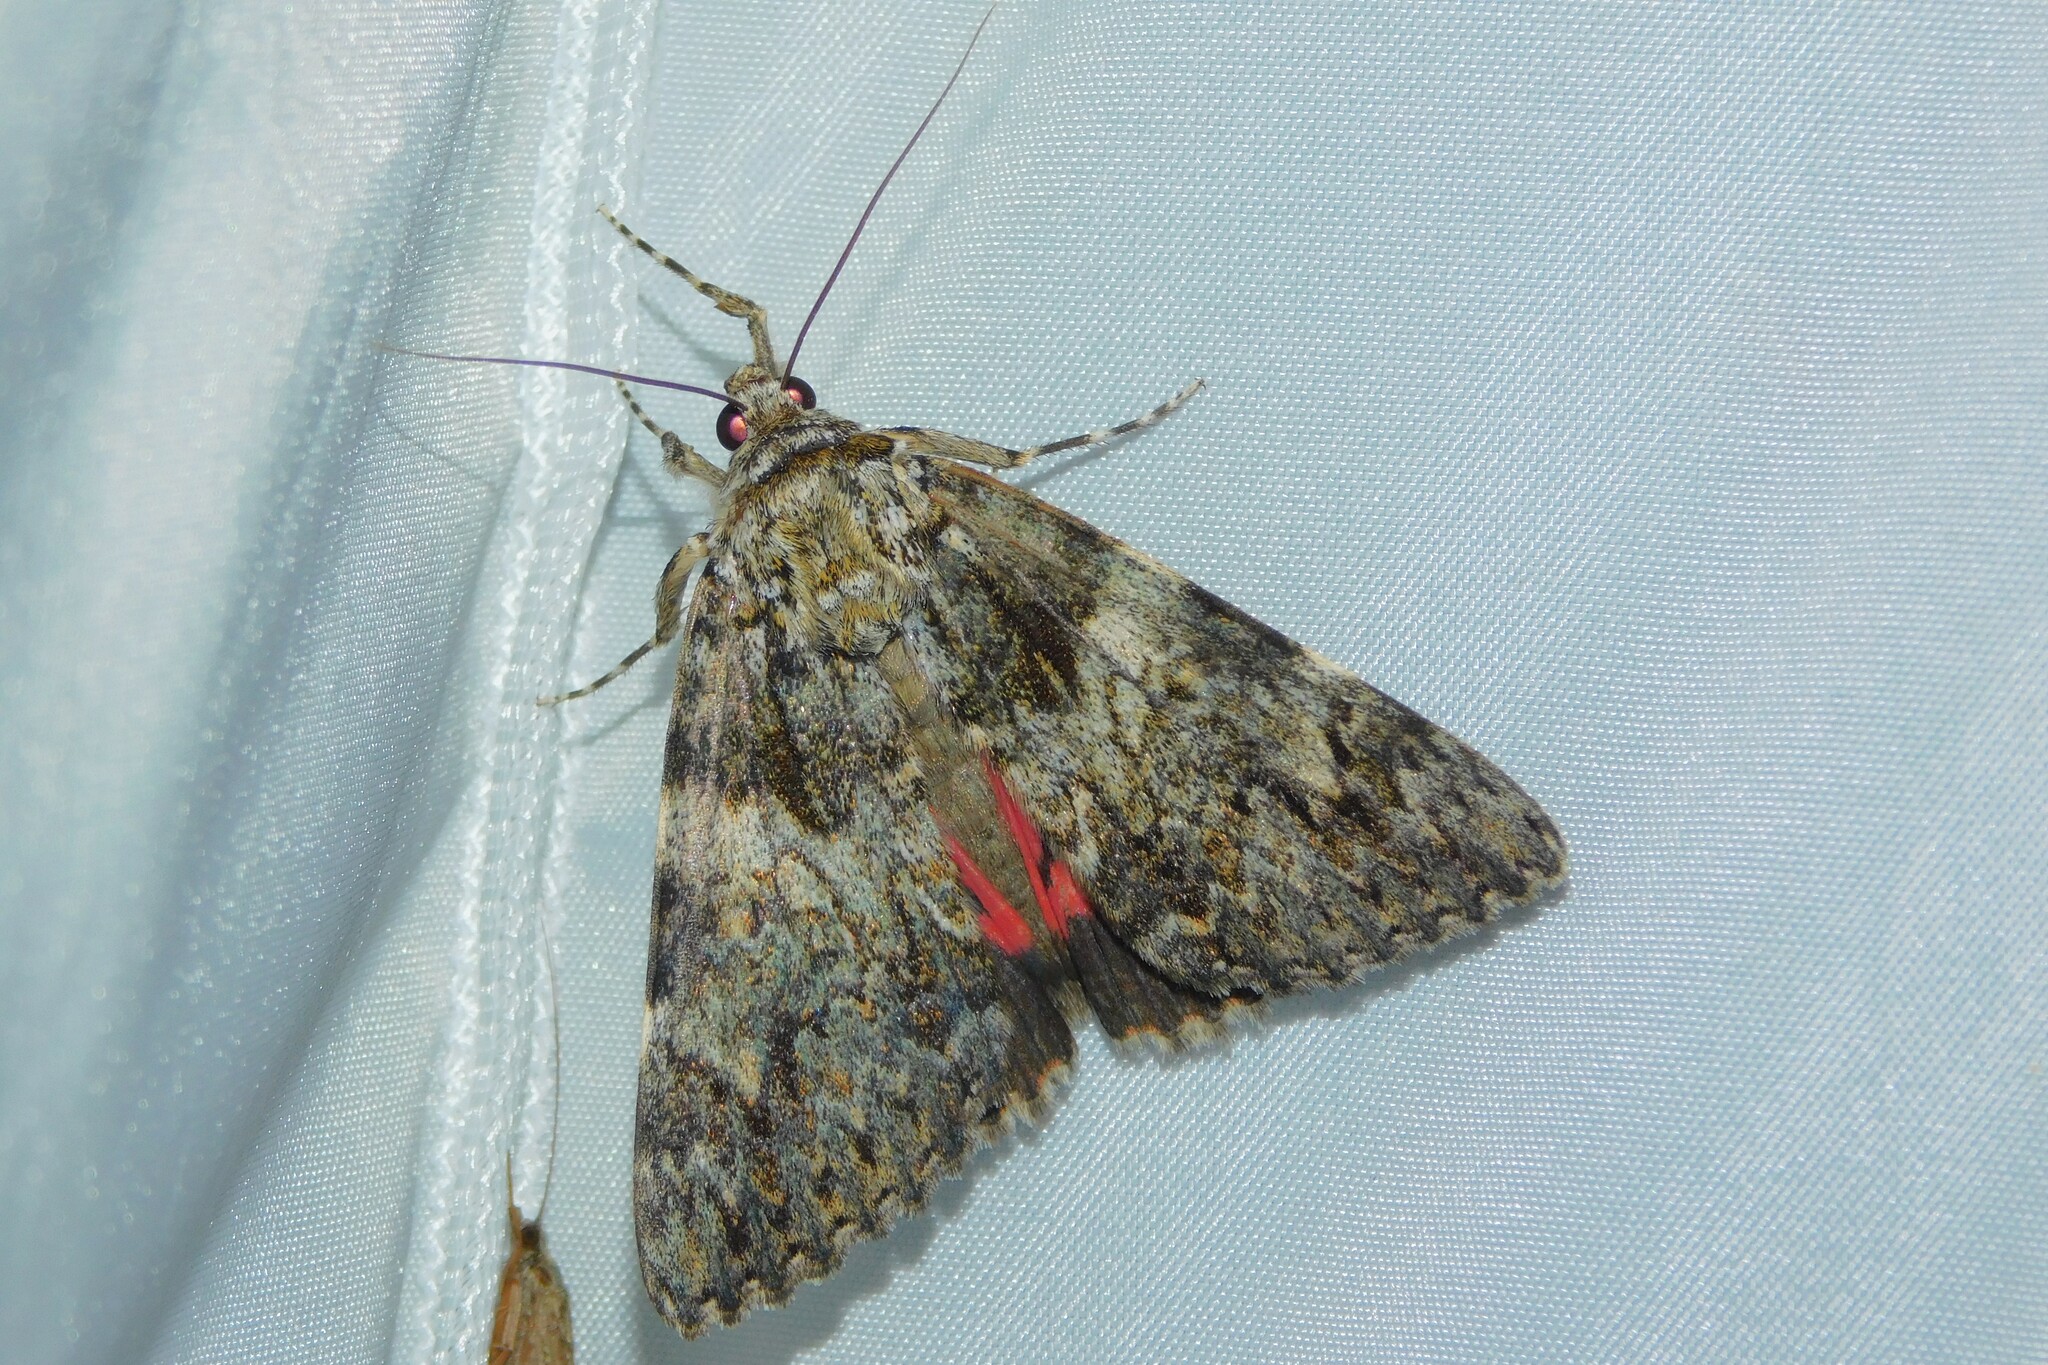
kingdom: Animalia
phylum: Arthropoda
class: Insecta
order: Lepidoptera
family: Erebidae
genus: Catocala
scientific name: Catocala promissa
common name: Light crimson underwing
